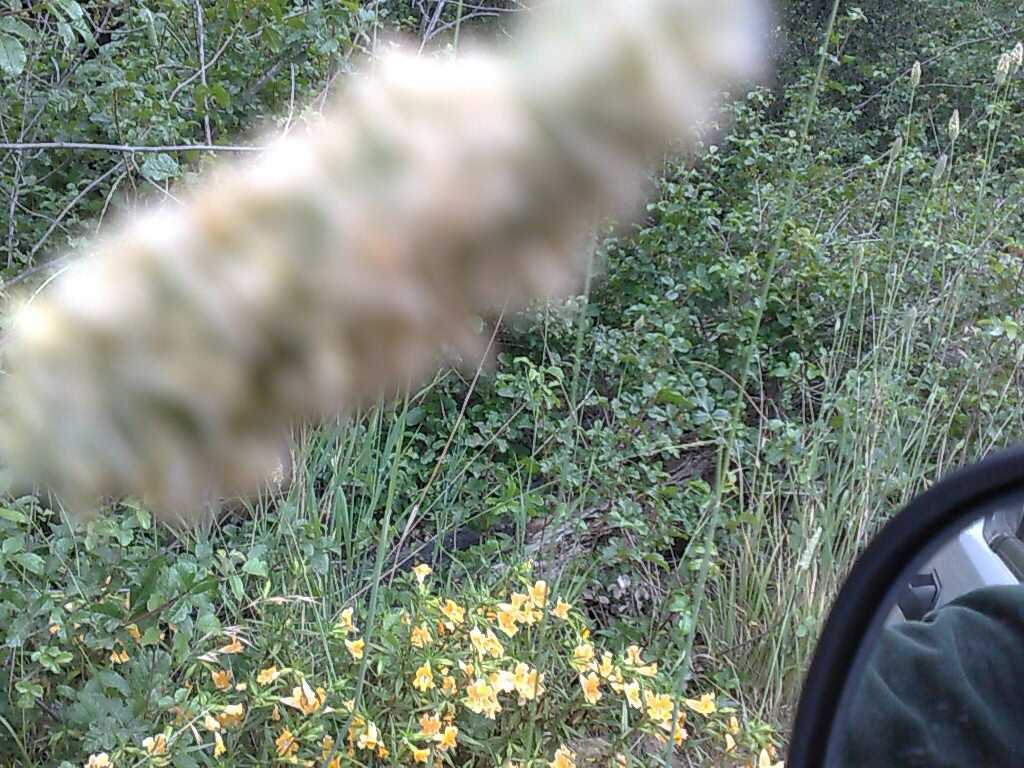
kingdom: Plantae
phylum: Tracheophyta
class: Magnoliopsida
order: Lamiales
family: Phrymaceae
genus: Diplacus
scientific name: Diplacus longiflorus
